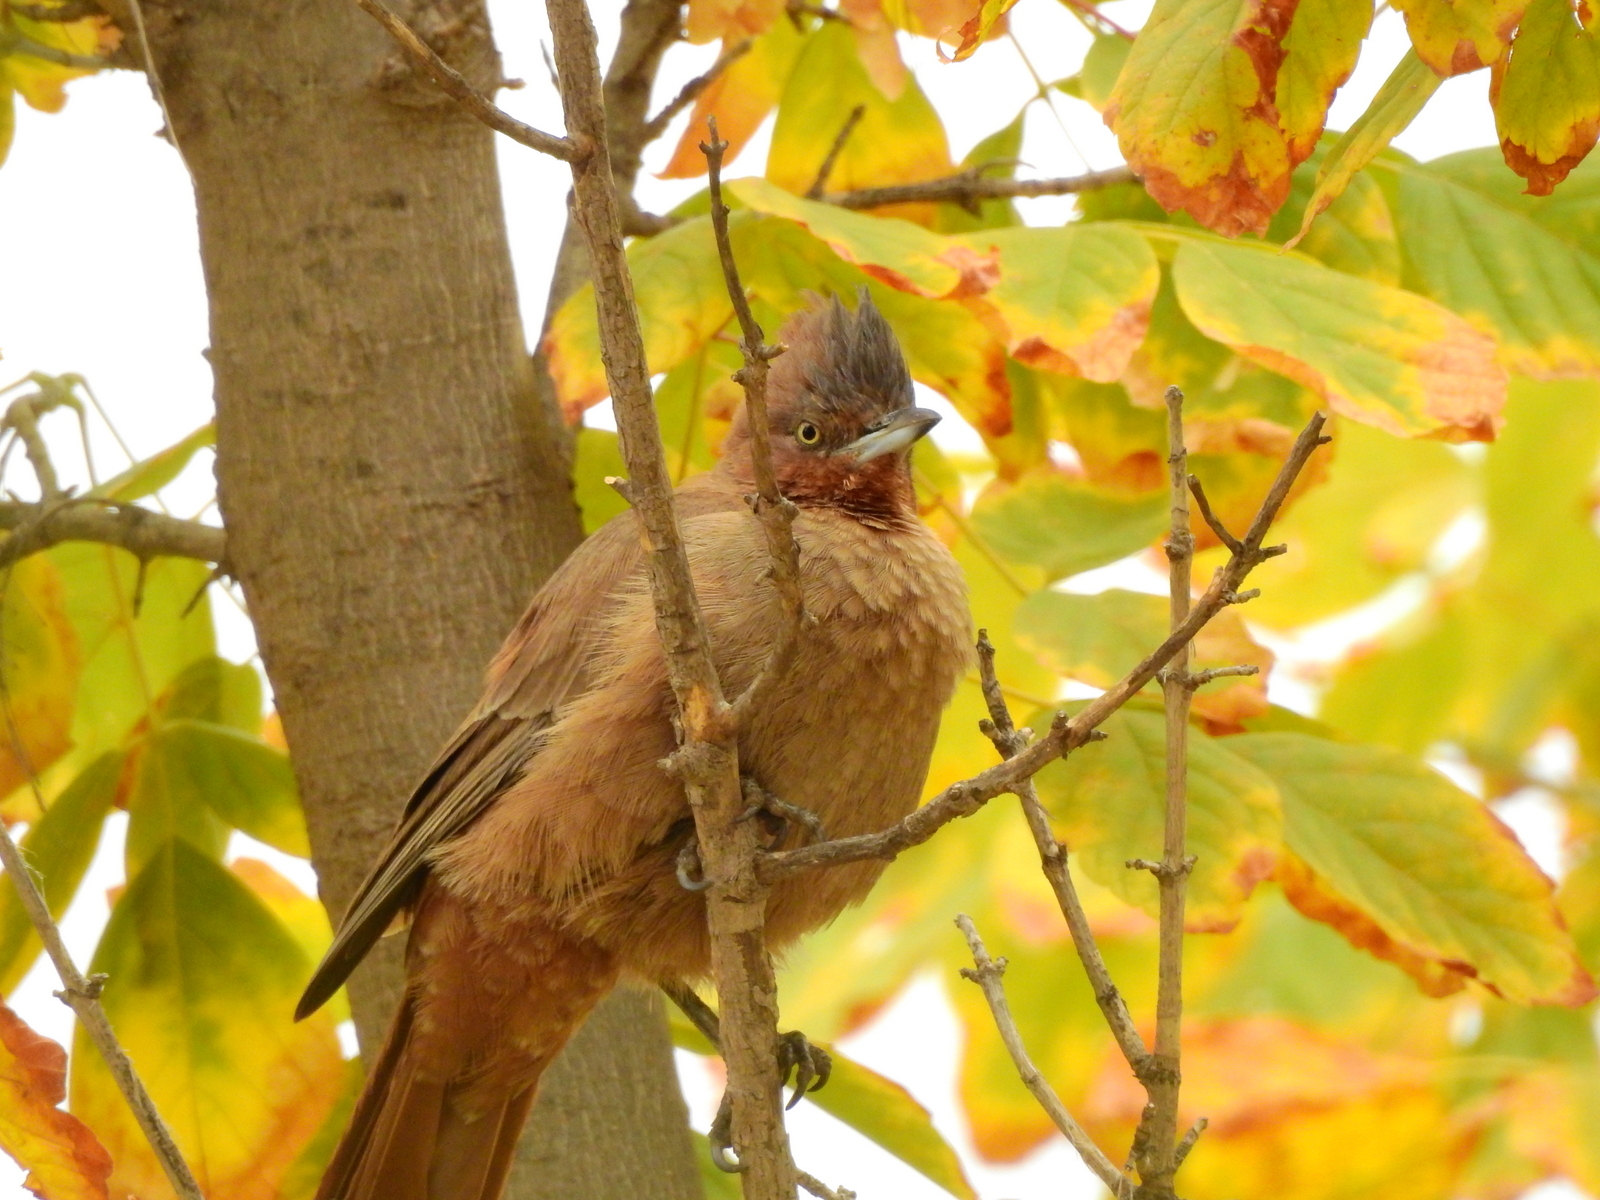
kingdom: Animalia
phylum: Chordata
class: Aves
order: Passeriformes
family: Furnariidae
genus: Pseudoseisura
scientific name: Pseudoseisura lophotes
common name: Brown cacholote
